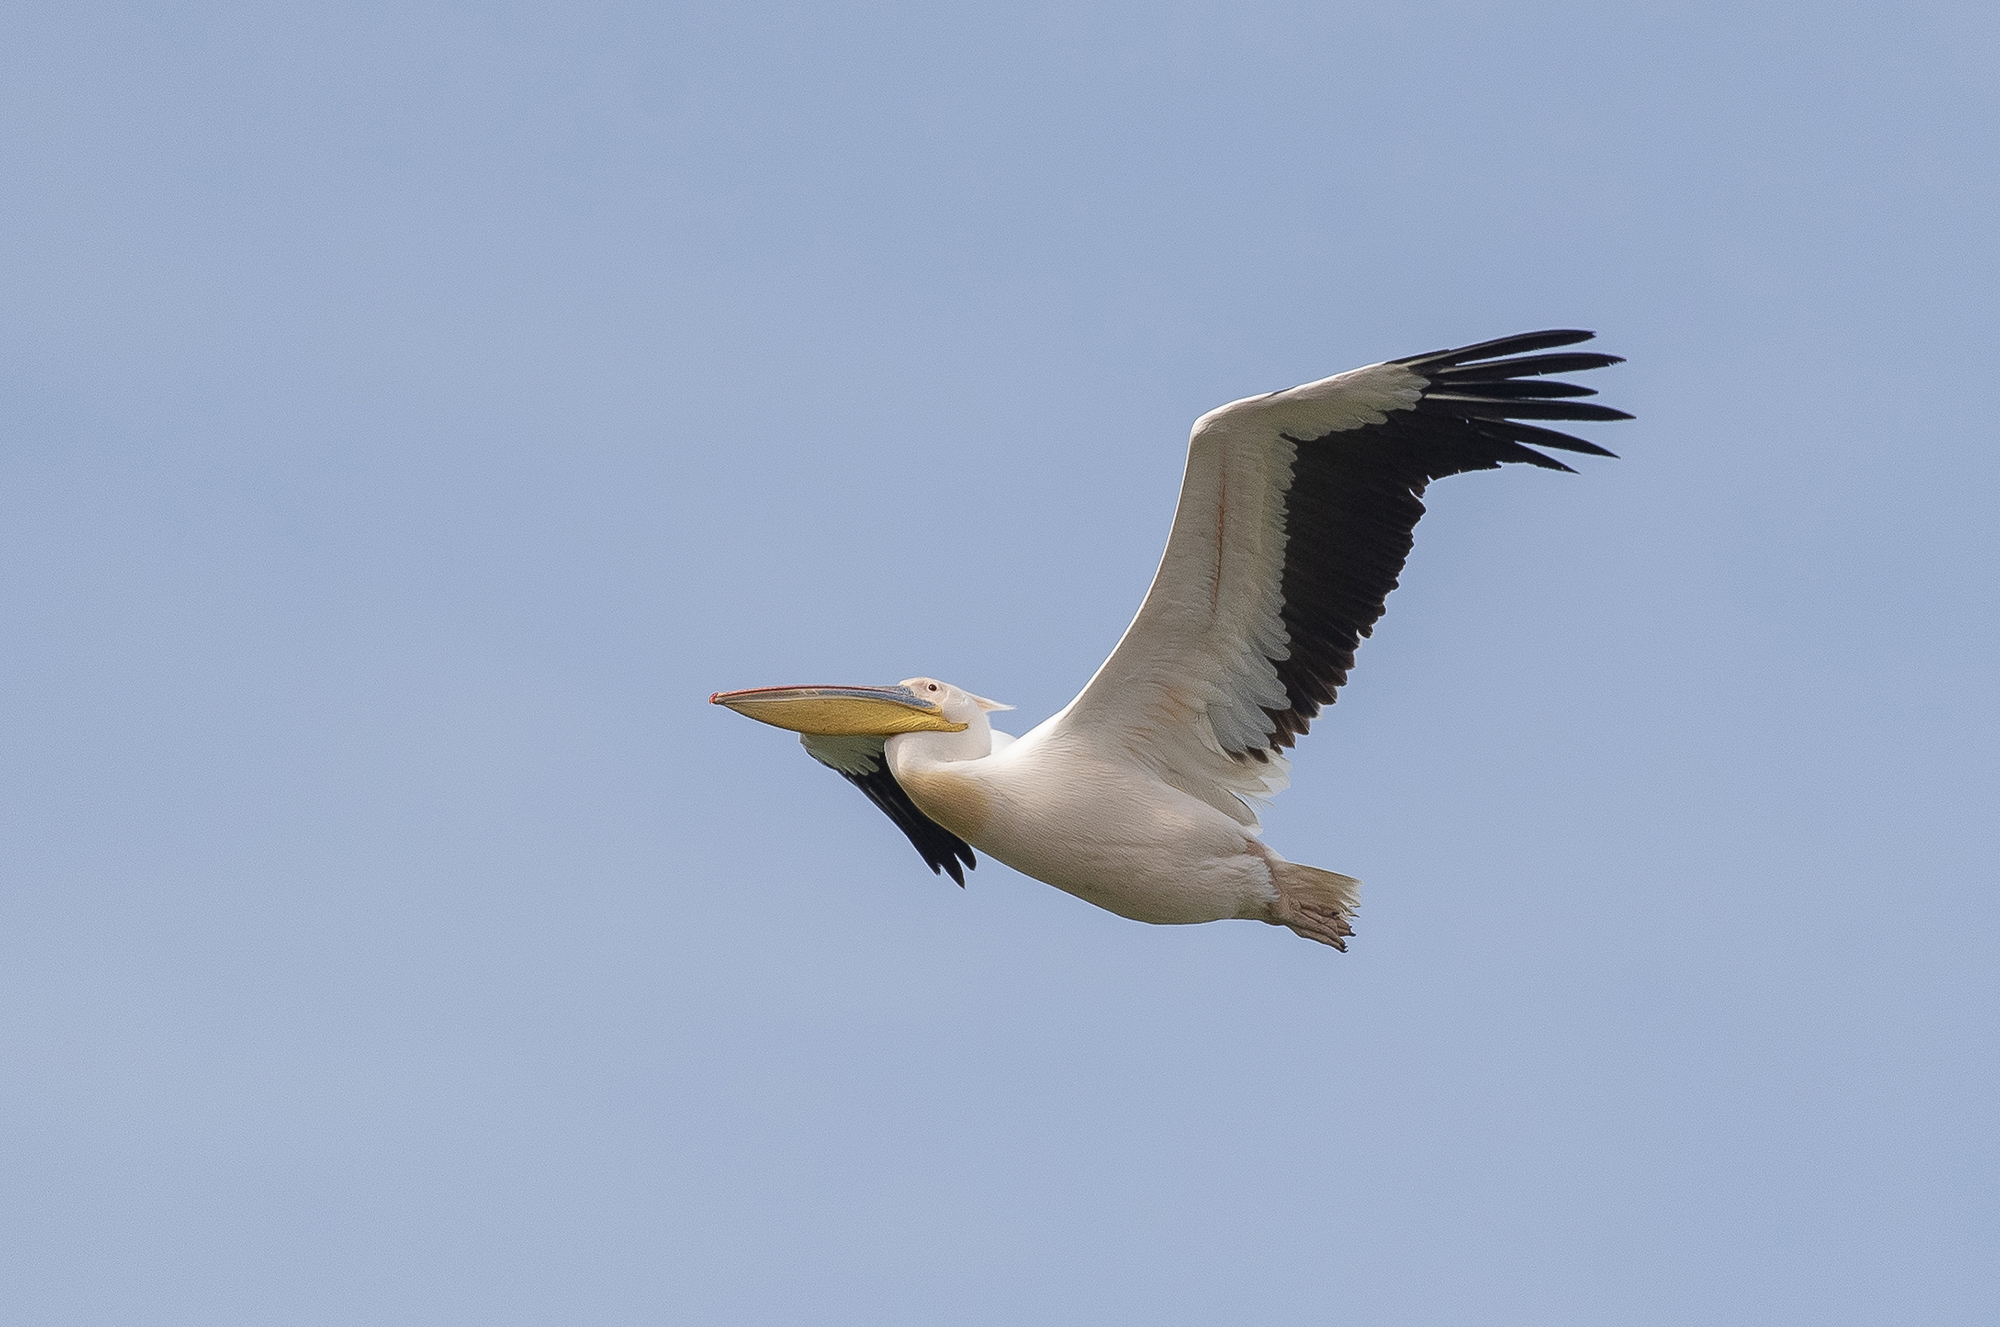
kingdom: Animalia
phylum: Chordata
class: Aves
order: Pelecaniformes
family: Pelecanidae
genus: Pelecanus
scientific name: Pelecanus onocrotalus
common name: Great white pelican
